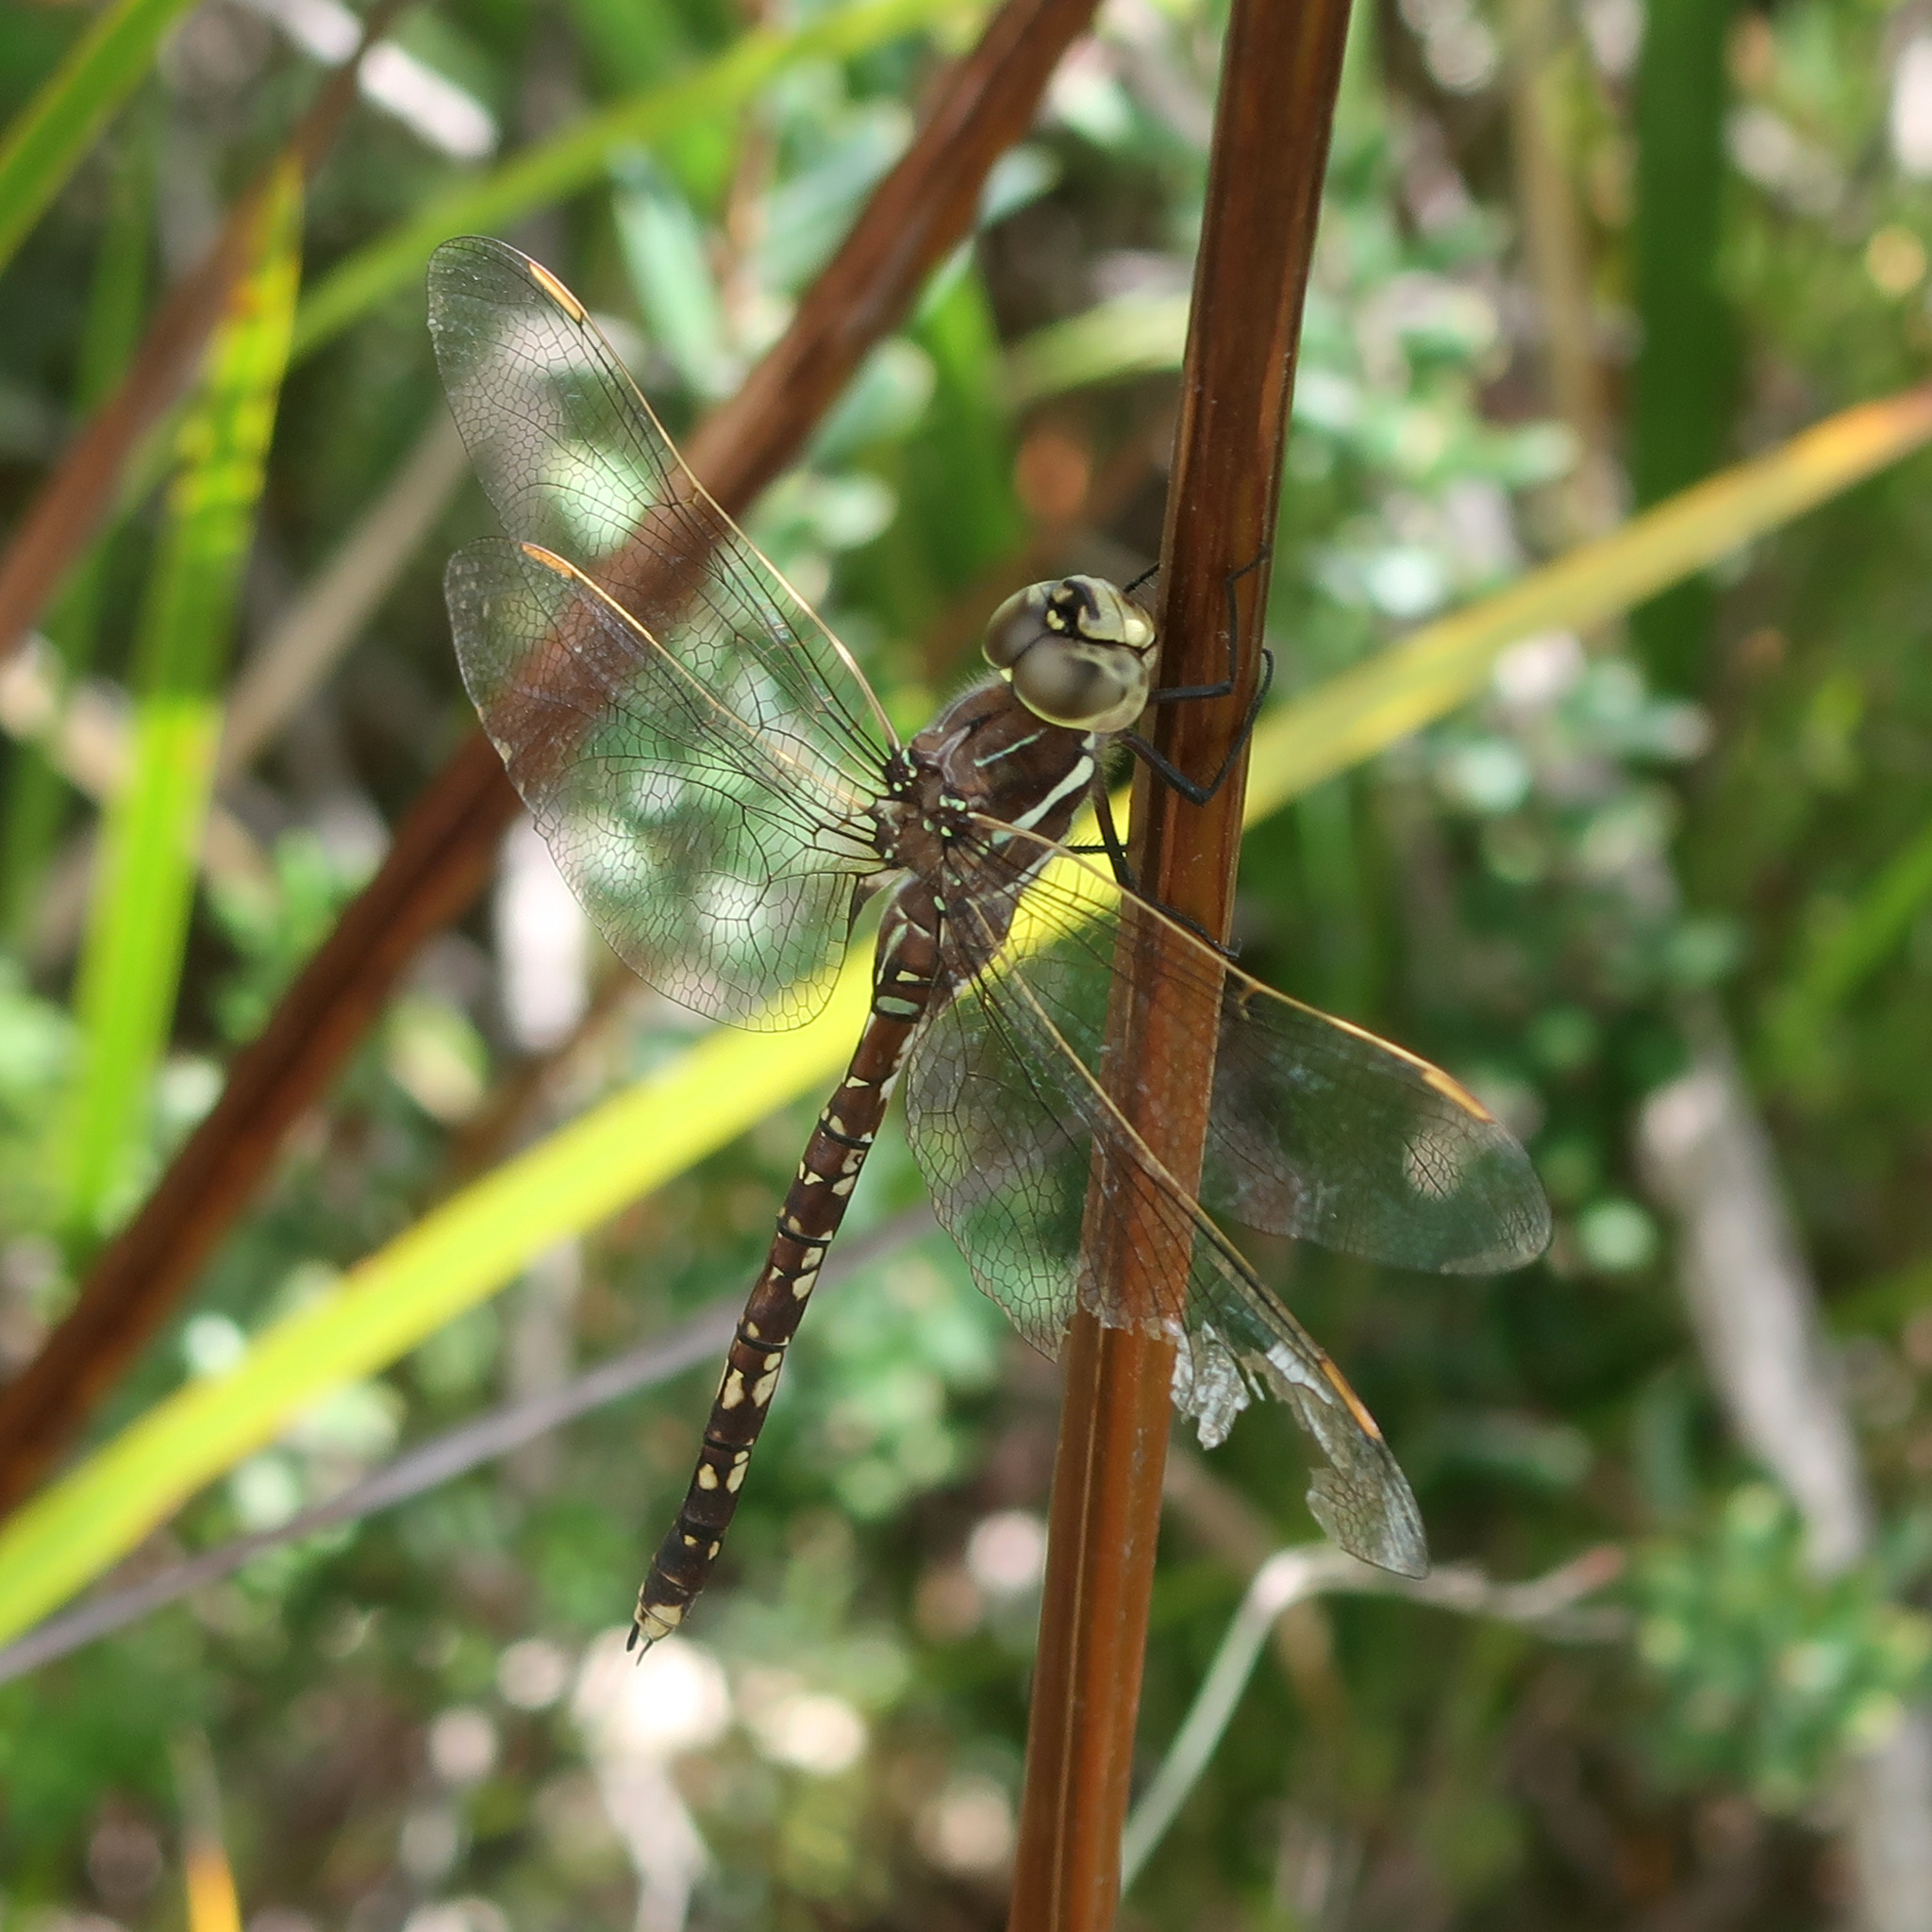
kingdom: Animalia
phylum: Arthropoda
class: Insecta
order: Odonata
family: Aeshnidae
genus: Aeshna
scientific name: Aeshna brevistyla
